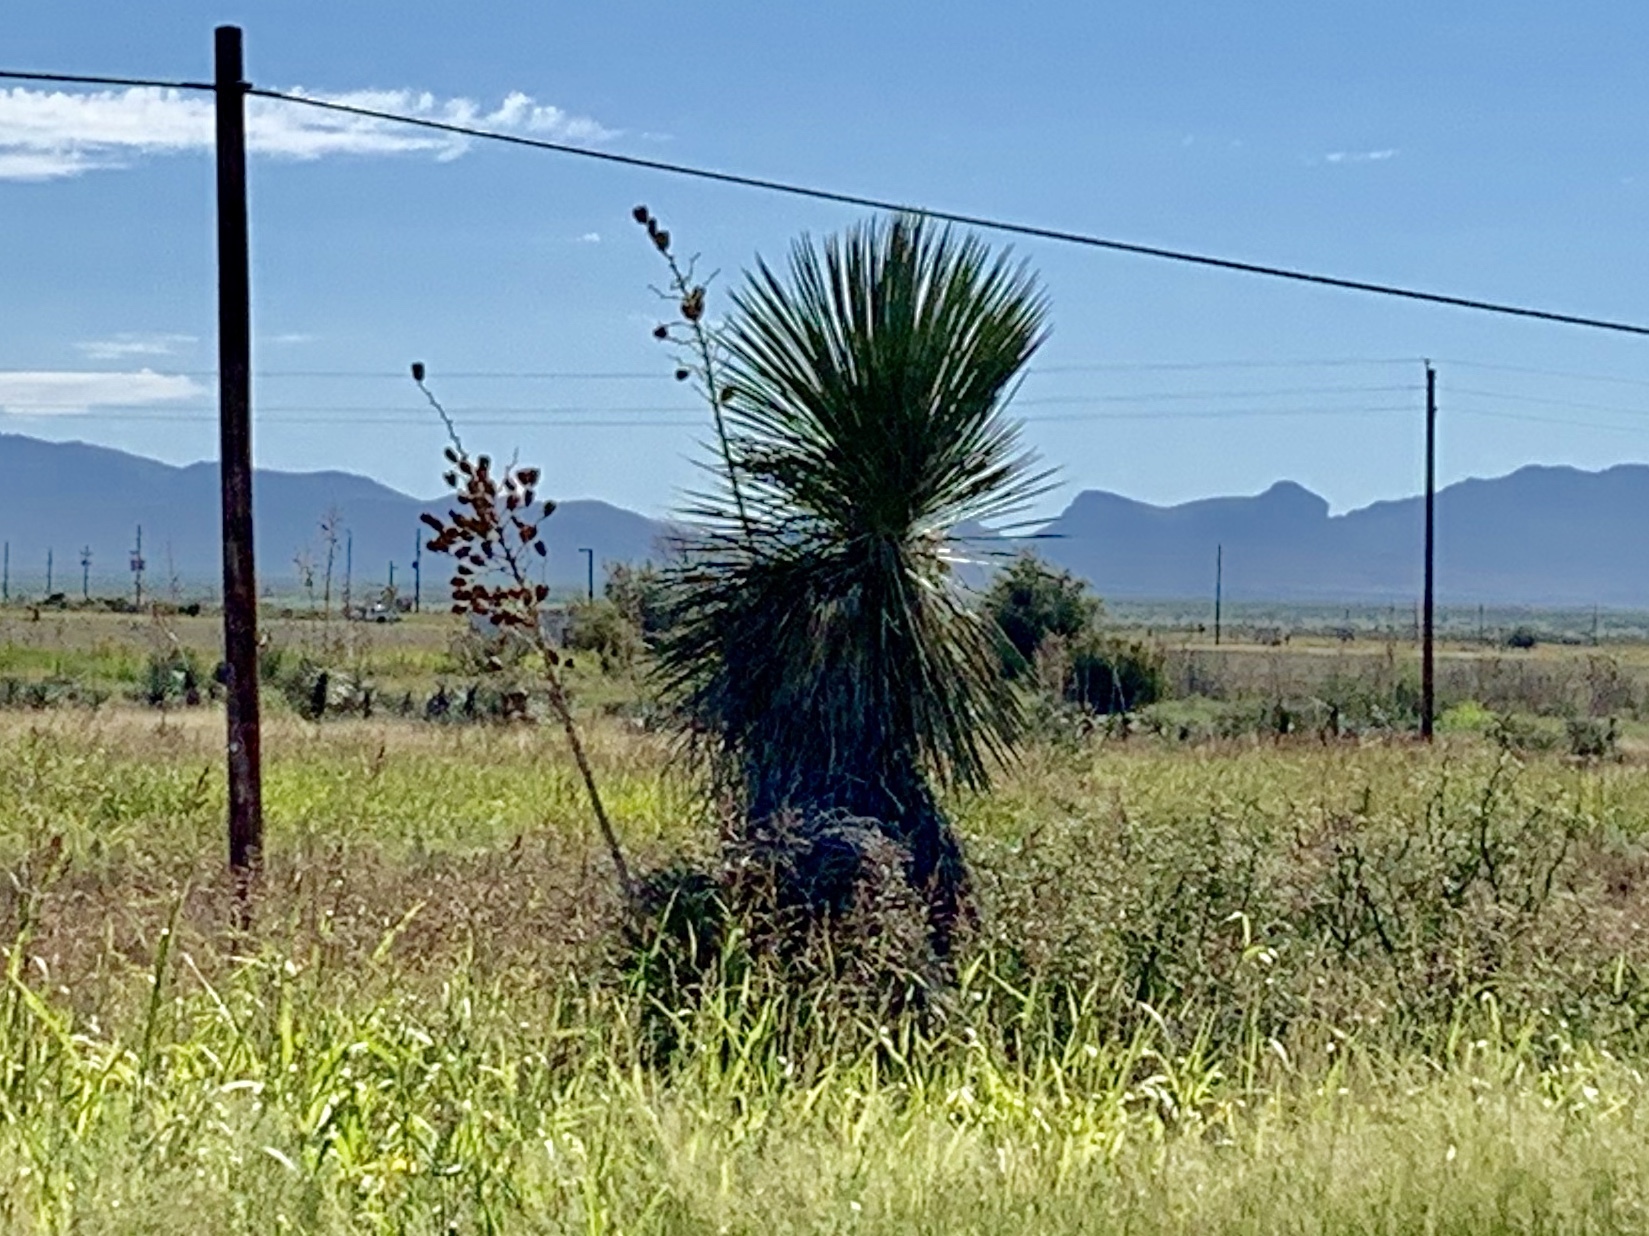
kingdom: Plantae
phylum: Tracheophyta
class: Liliopsida
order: Asparagales
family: Asparagaceae
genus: Yucca
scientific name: Yucca elata
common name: Palmella
